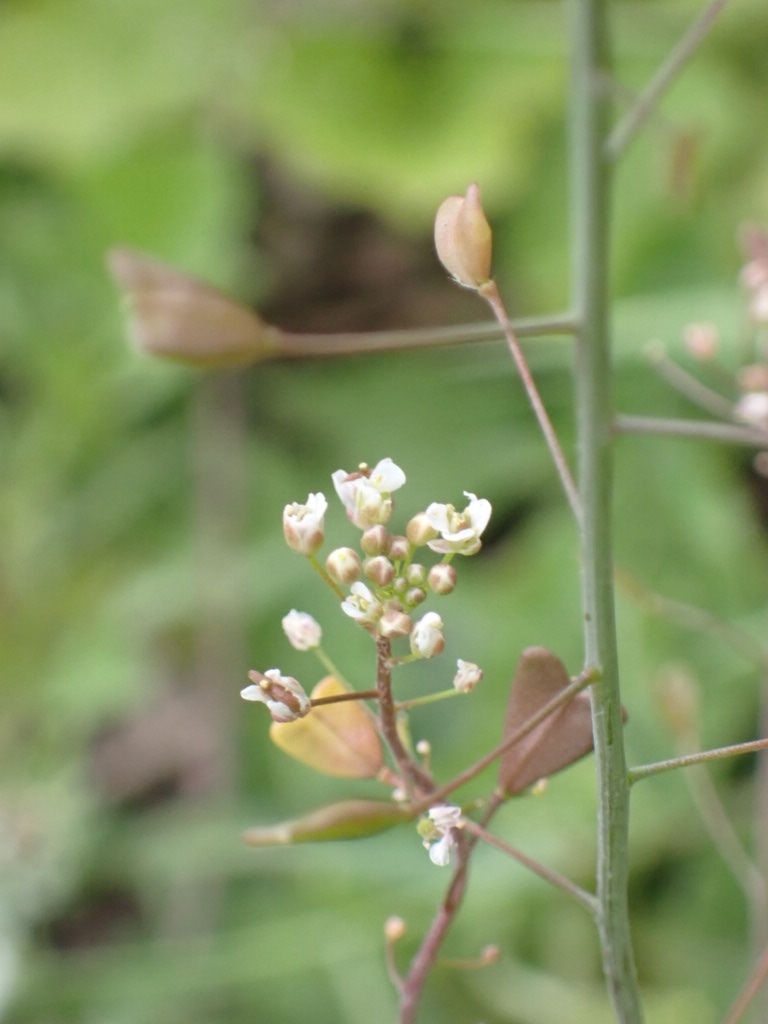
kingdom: Plantae
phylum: Tracheophyta
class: Magnoliopsida
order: Brassicales
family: Brassicaceae
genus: Capsella
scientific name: Capsella bursa-pastoris
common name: Shepherd's purse
